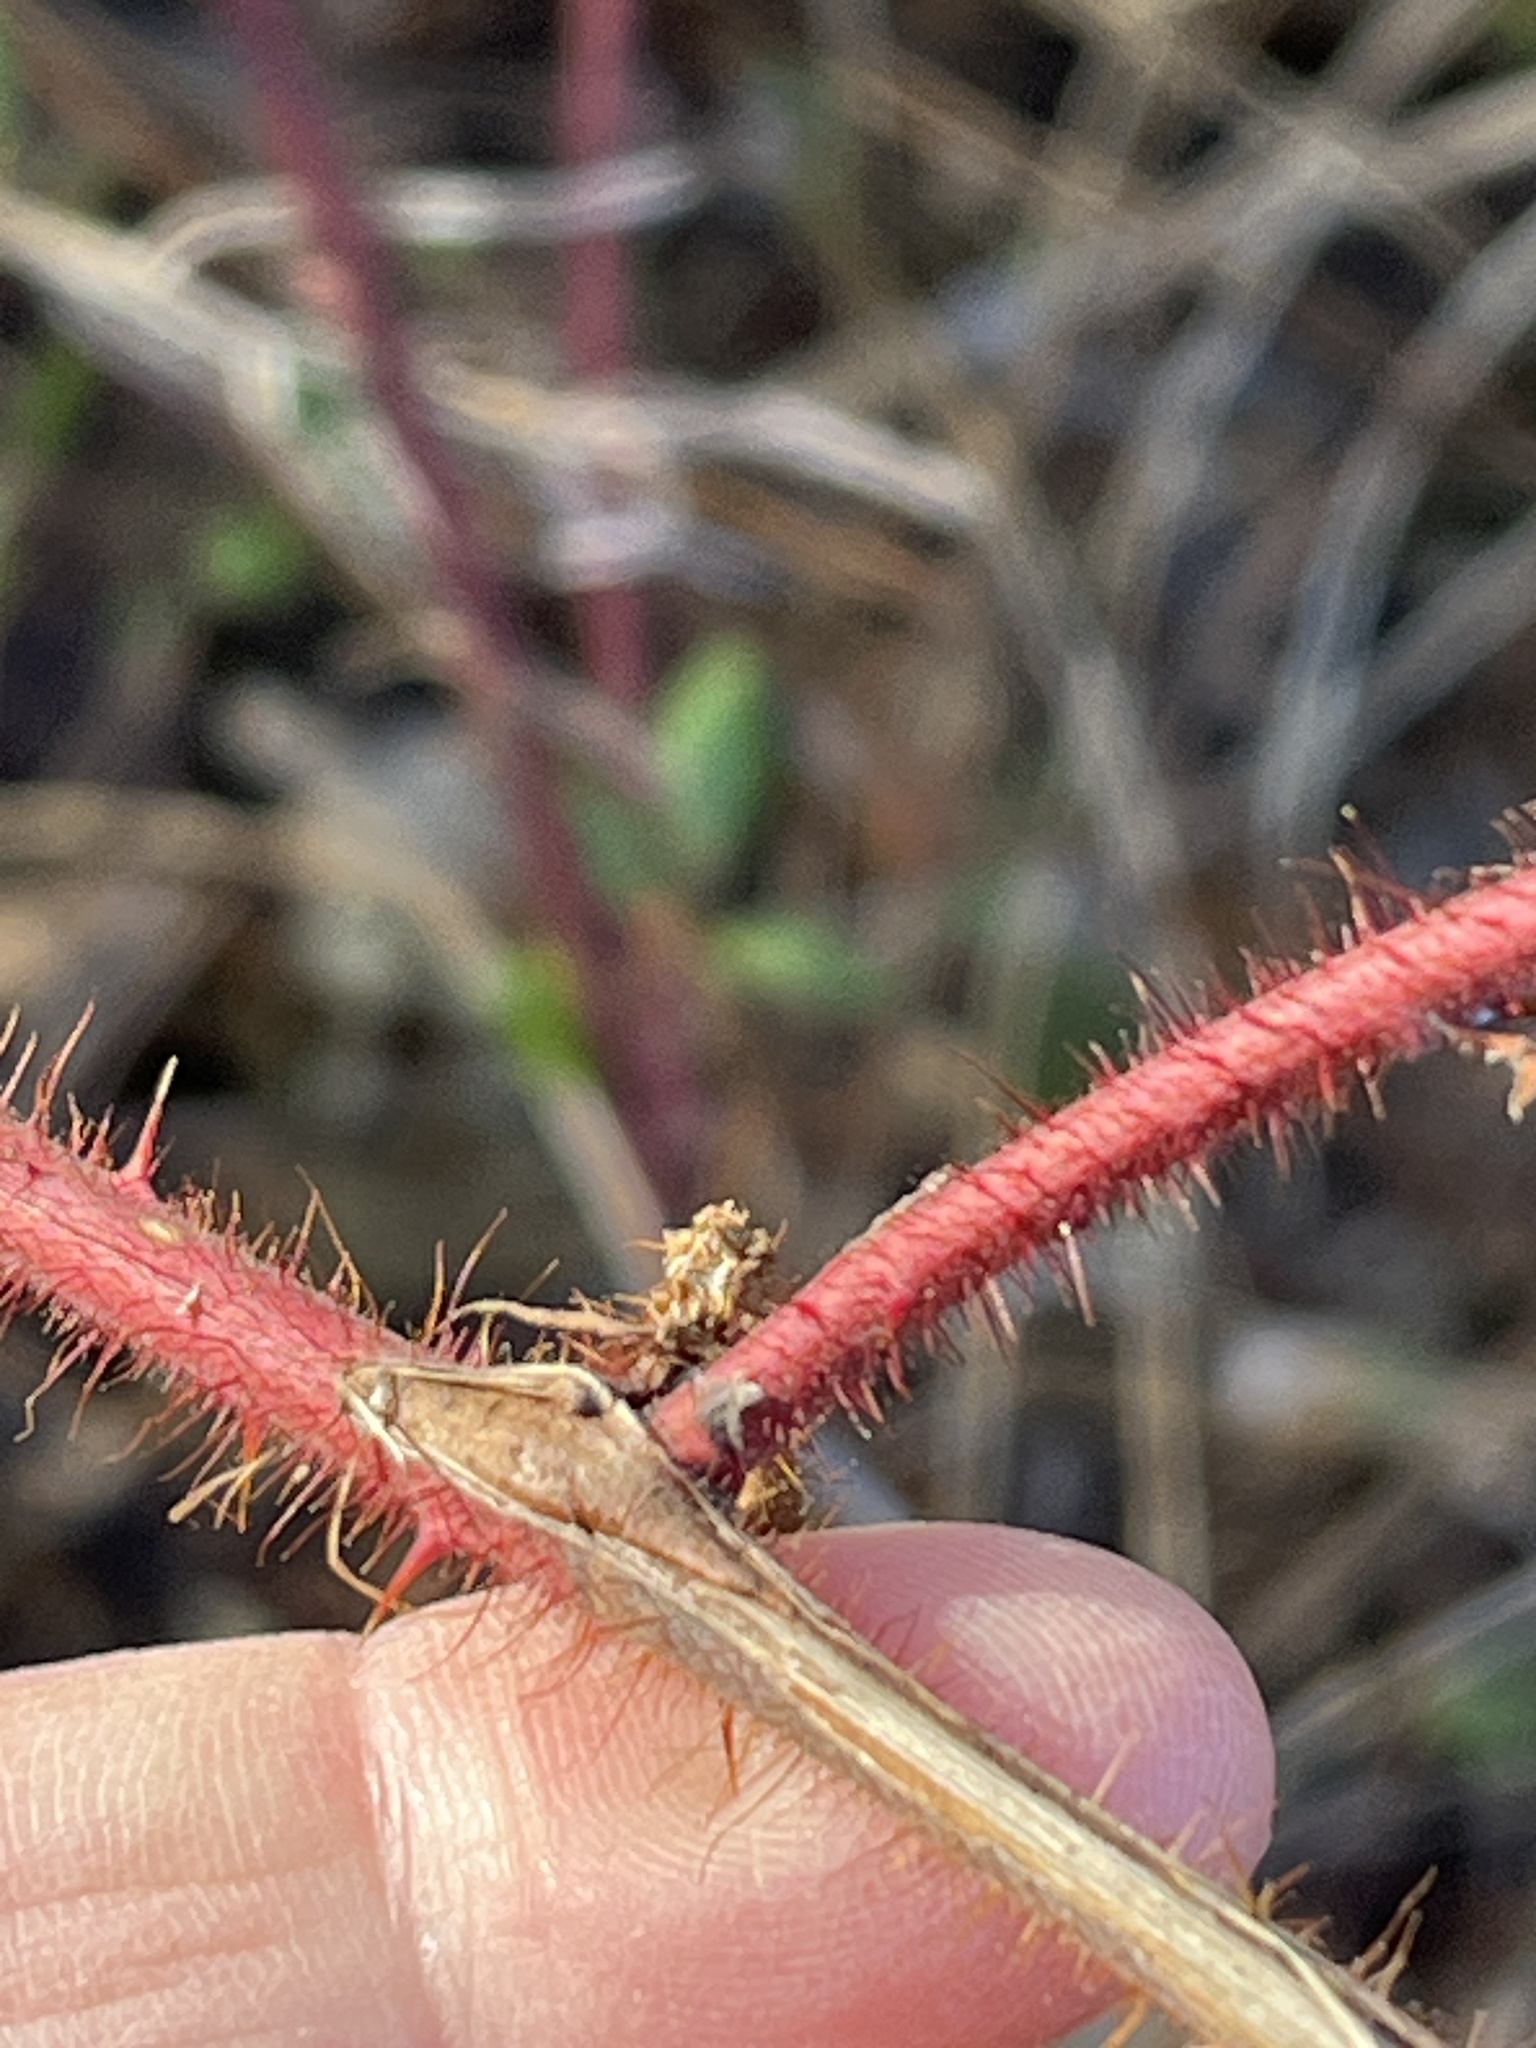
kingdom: Plantae
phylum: Tracheophyta
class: Magnoliopsida
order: Rosales
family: Rosaceae
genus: Rubus
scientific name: Rubus phoenicolasius
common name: Japanese wineberry
